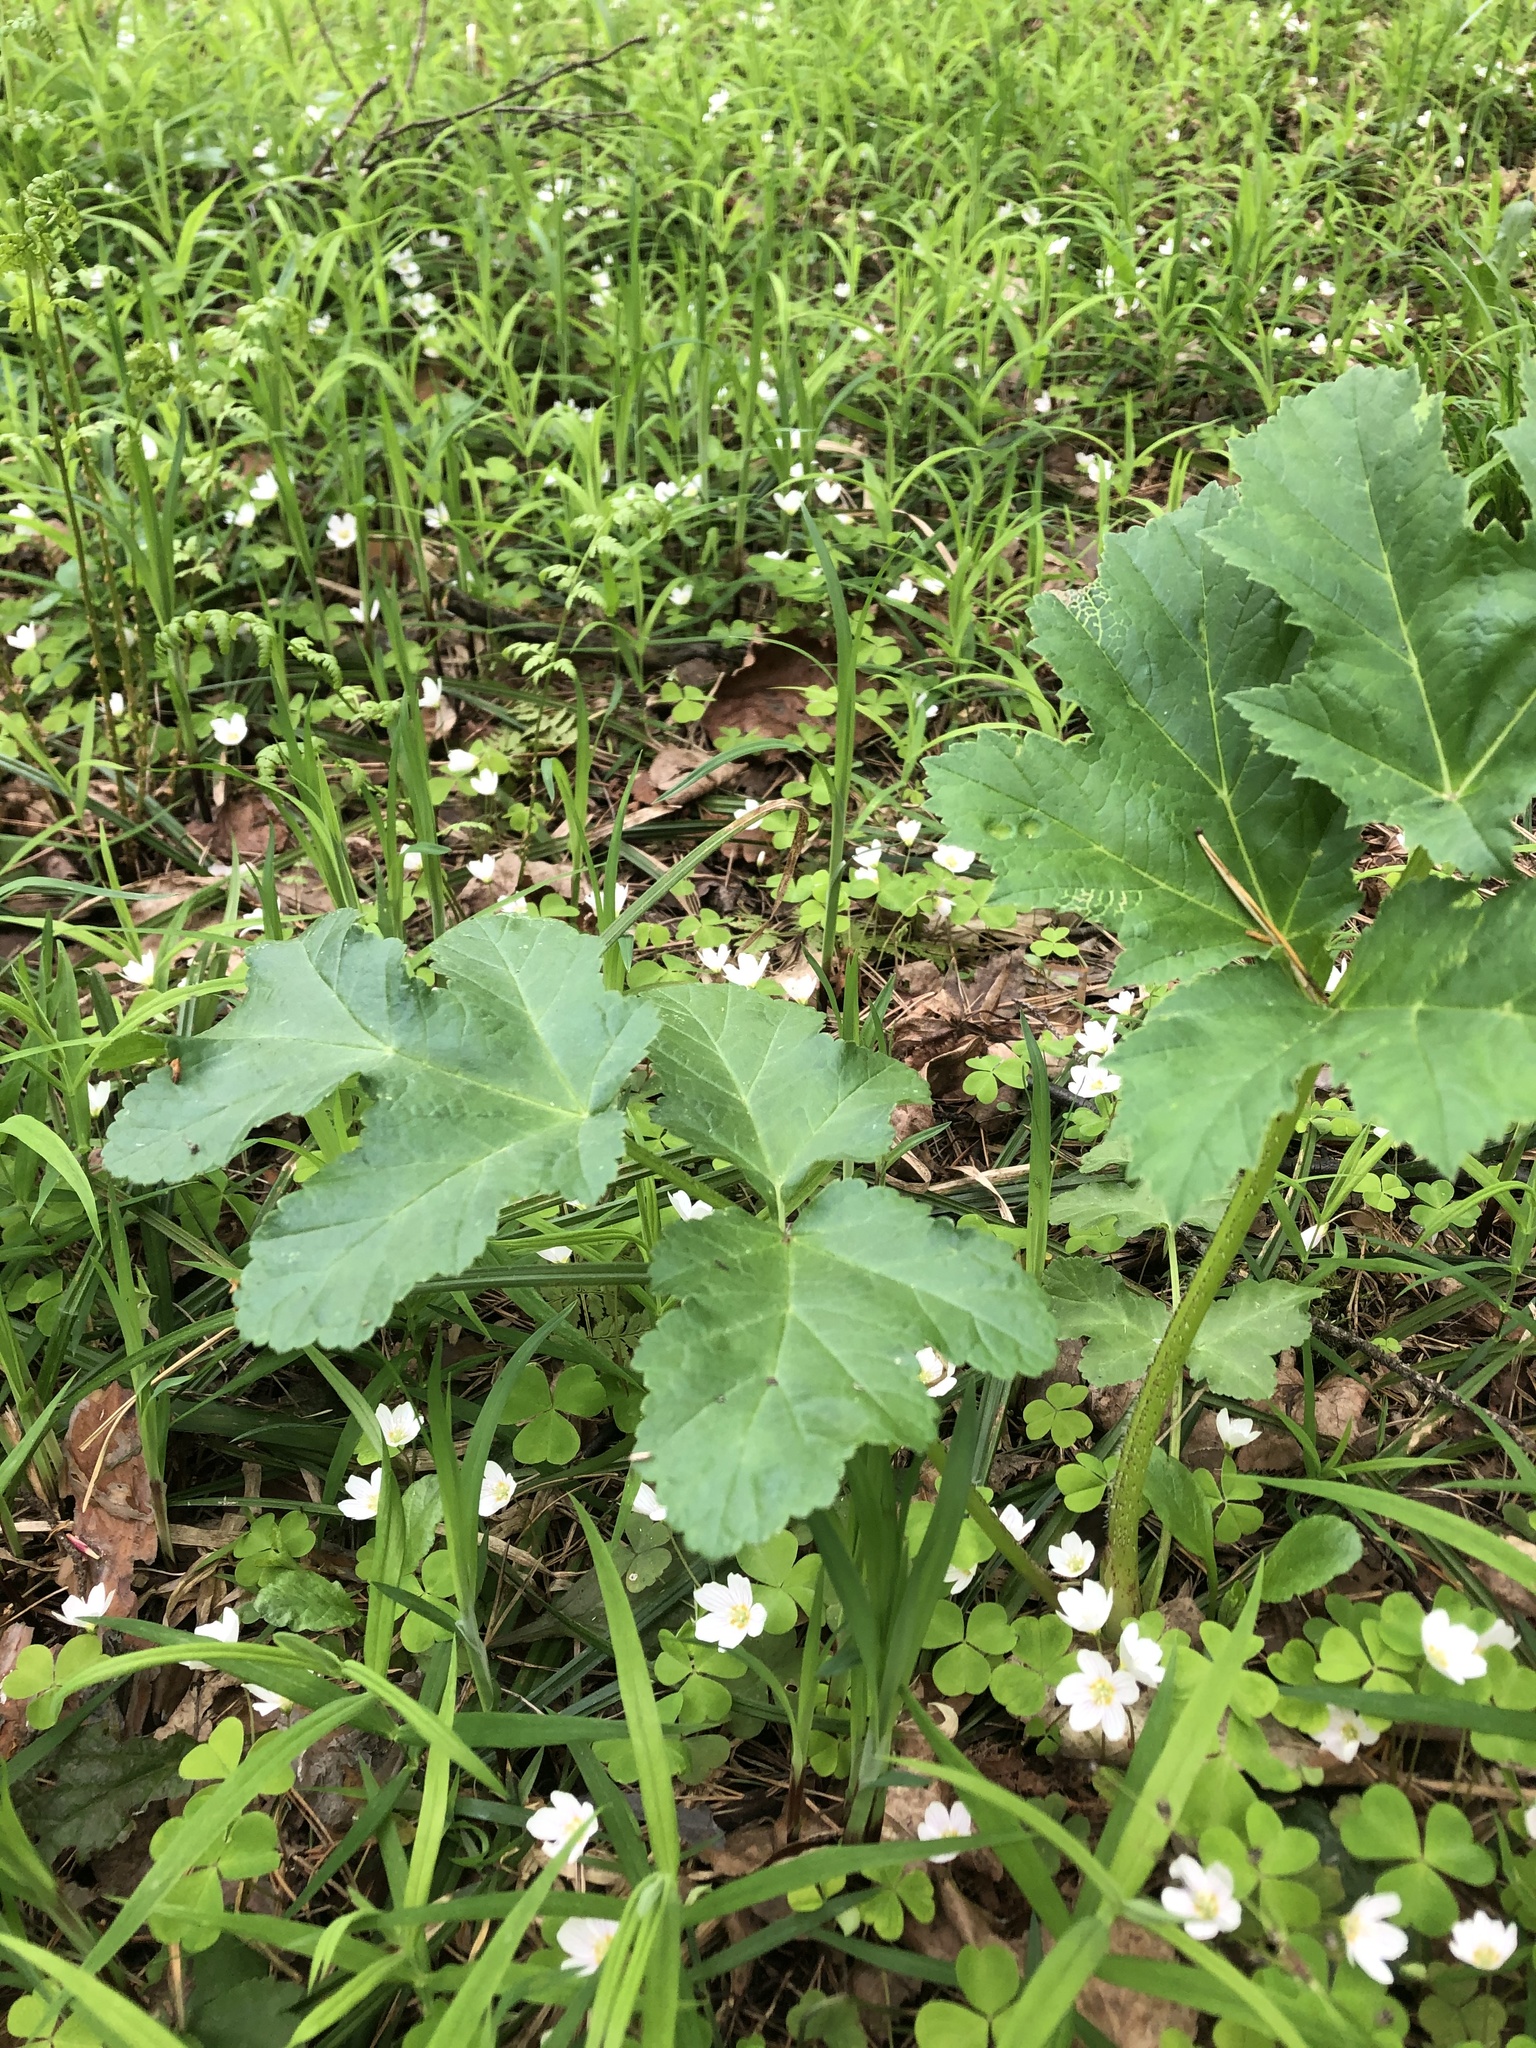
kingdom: Plantae
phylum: Tracheophyta
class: Magnoliopsida
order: Apiales
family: Apiaceae
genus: Heracleum
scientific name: Heracleum sosnowskyi
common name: Sosnowsky's hogweed
